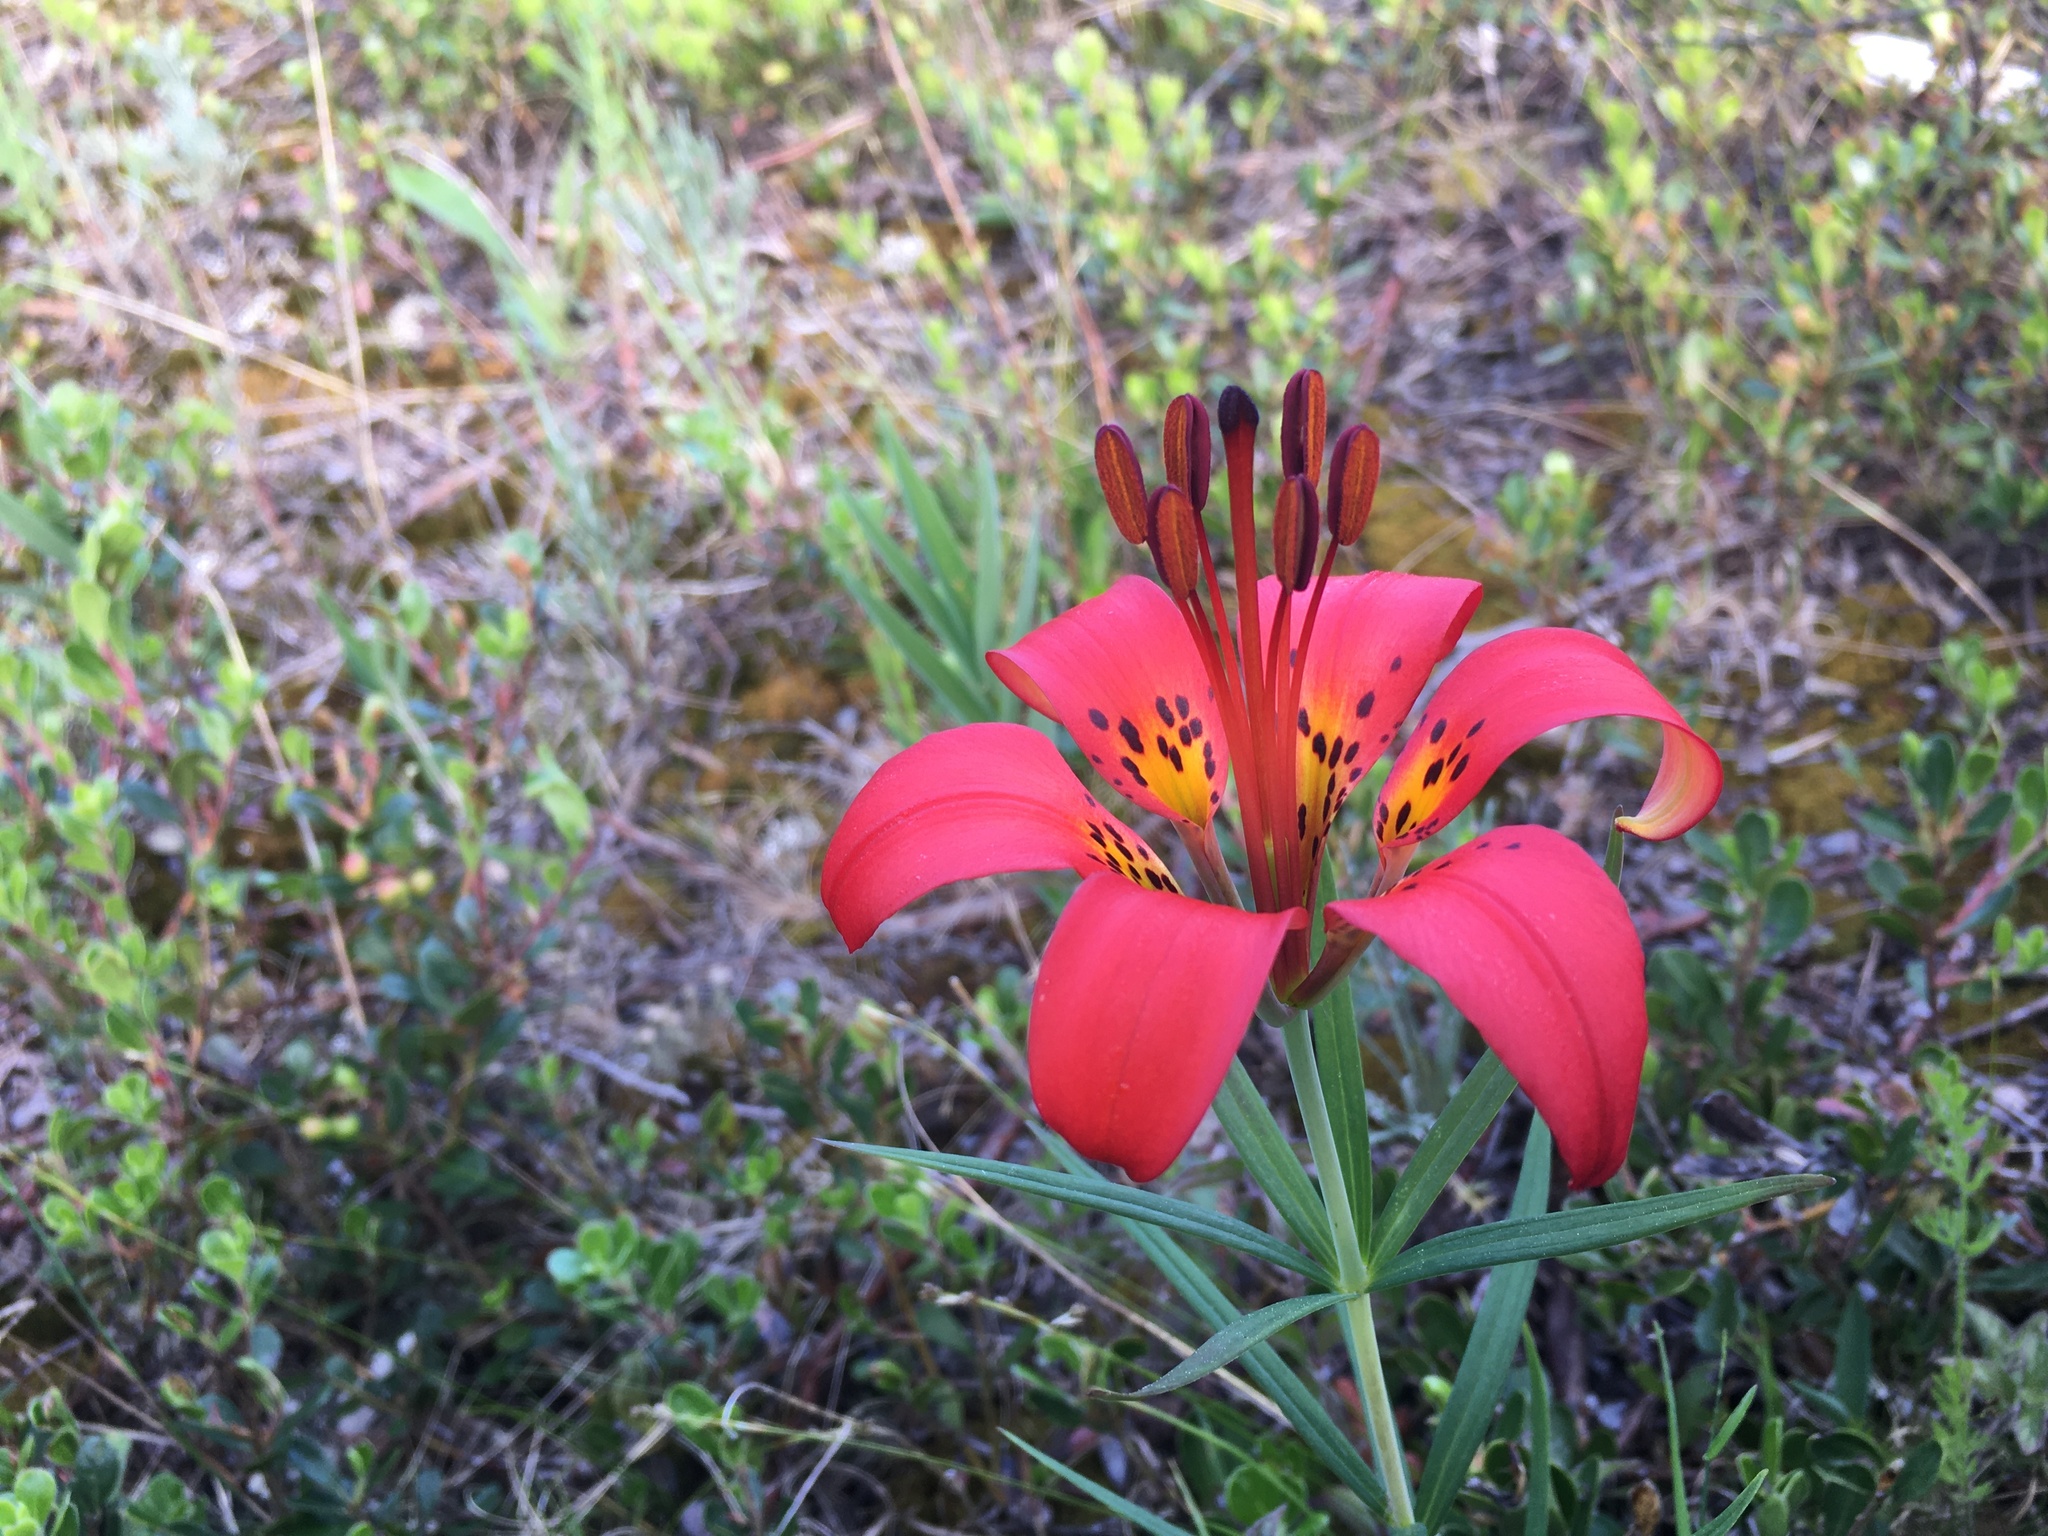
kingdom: Plantae
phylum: Tracheophyta
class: Liliopsida
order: Liliales
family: Liliaceae
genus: Lilium
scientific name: Lilium philadelphicum
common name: Red lily
